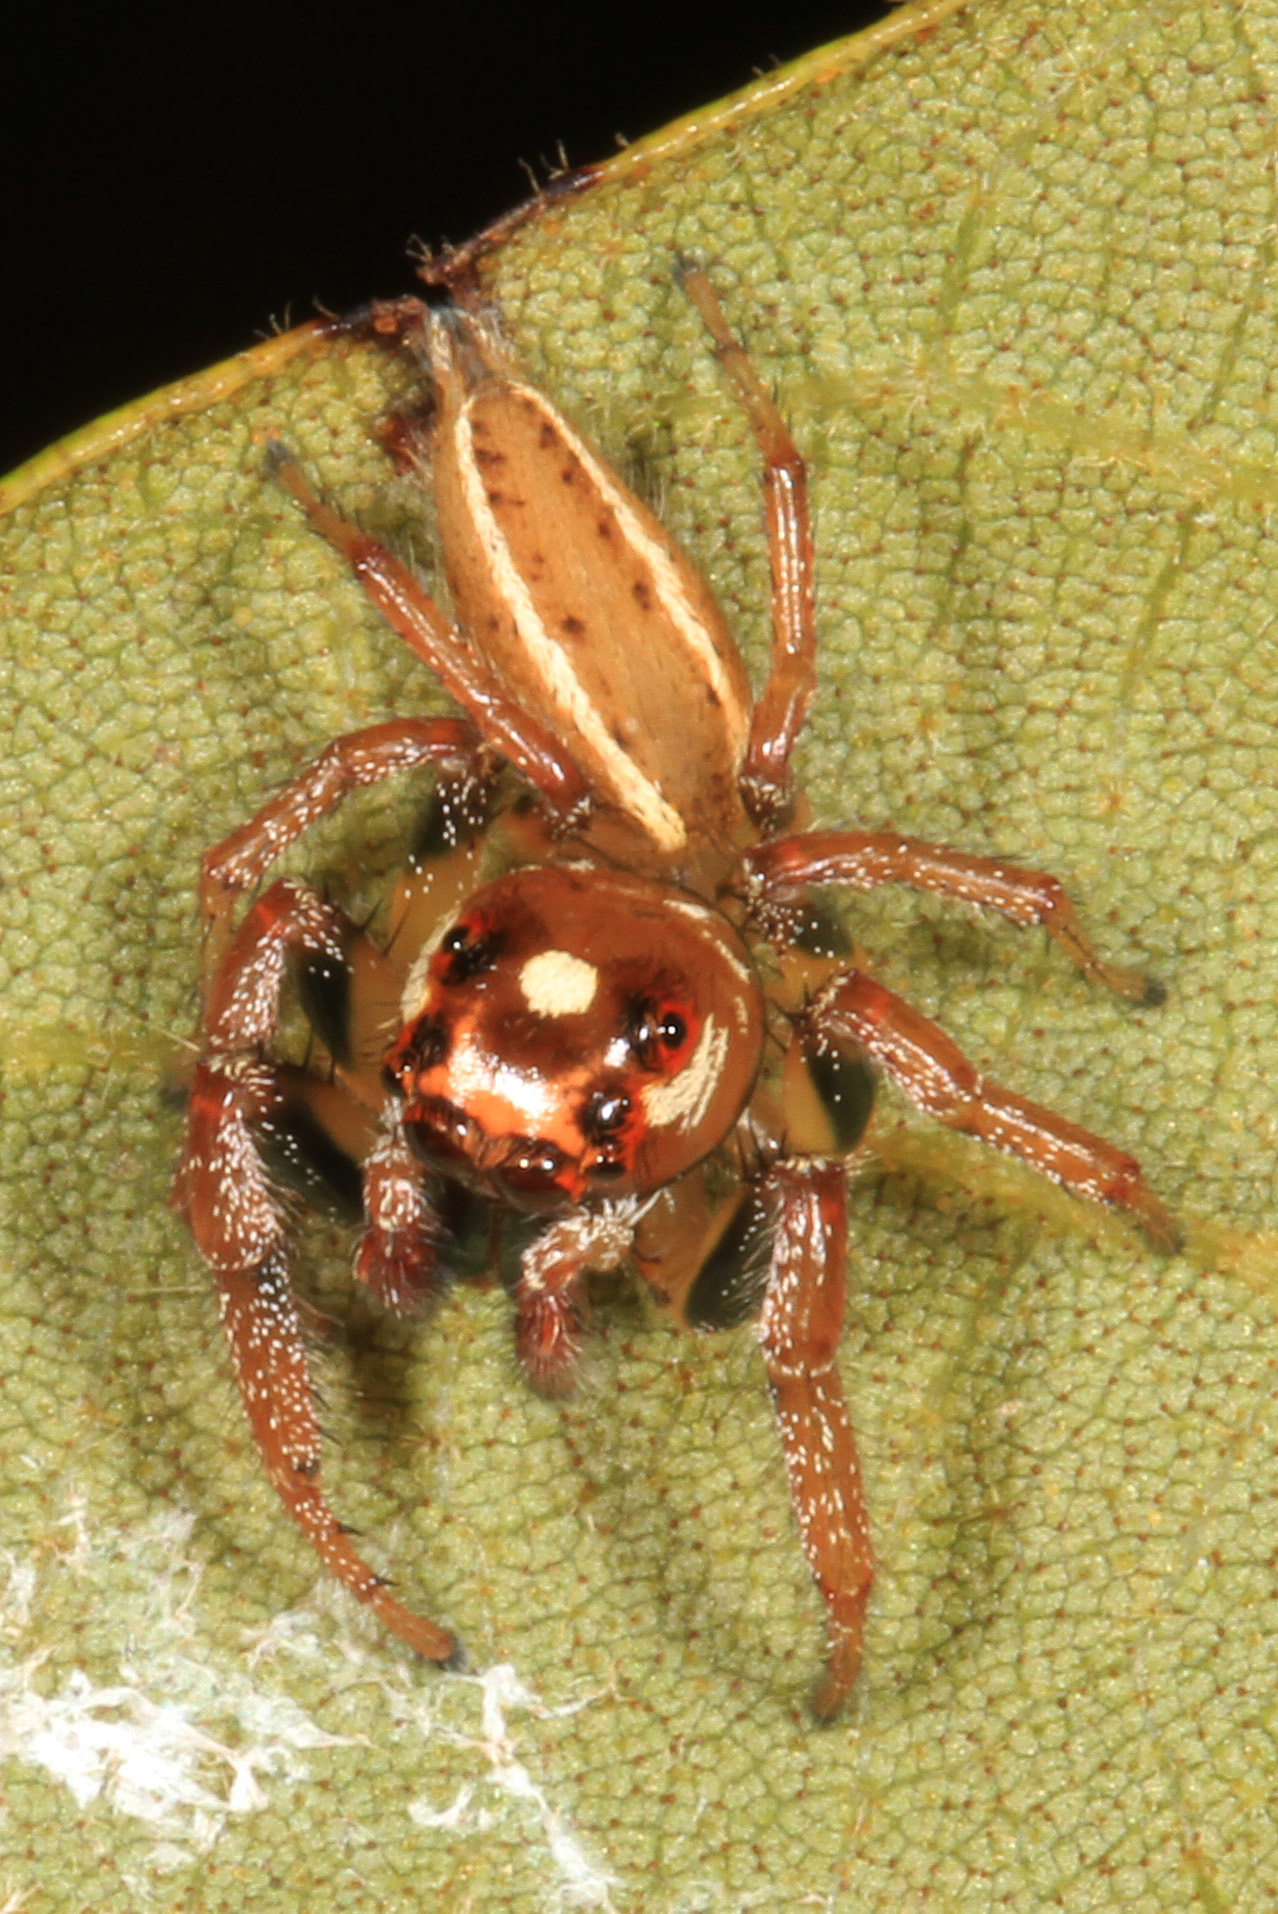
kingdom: Animalia
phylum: Arthropoda
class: Arachnida
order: Araneae
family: Salticidae
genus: Colonus
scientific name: Colonus sylvanus
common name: Jumping spiders
